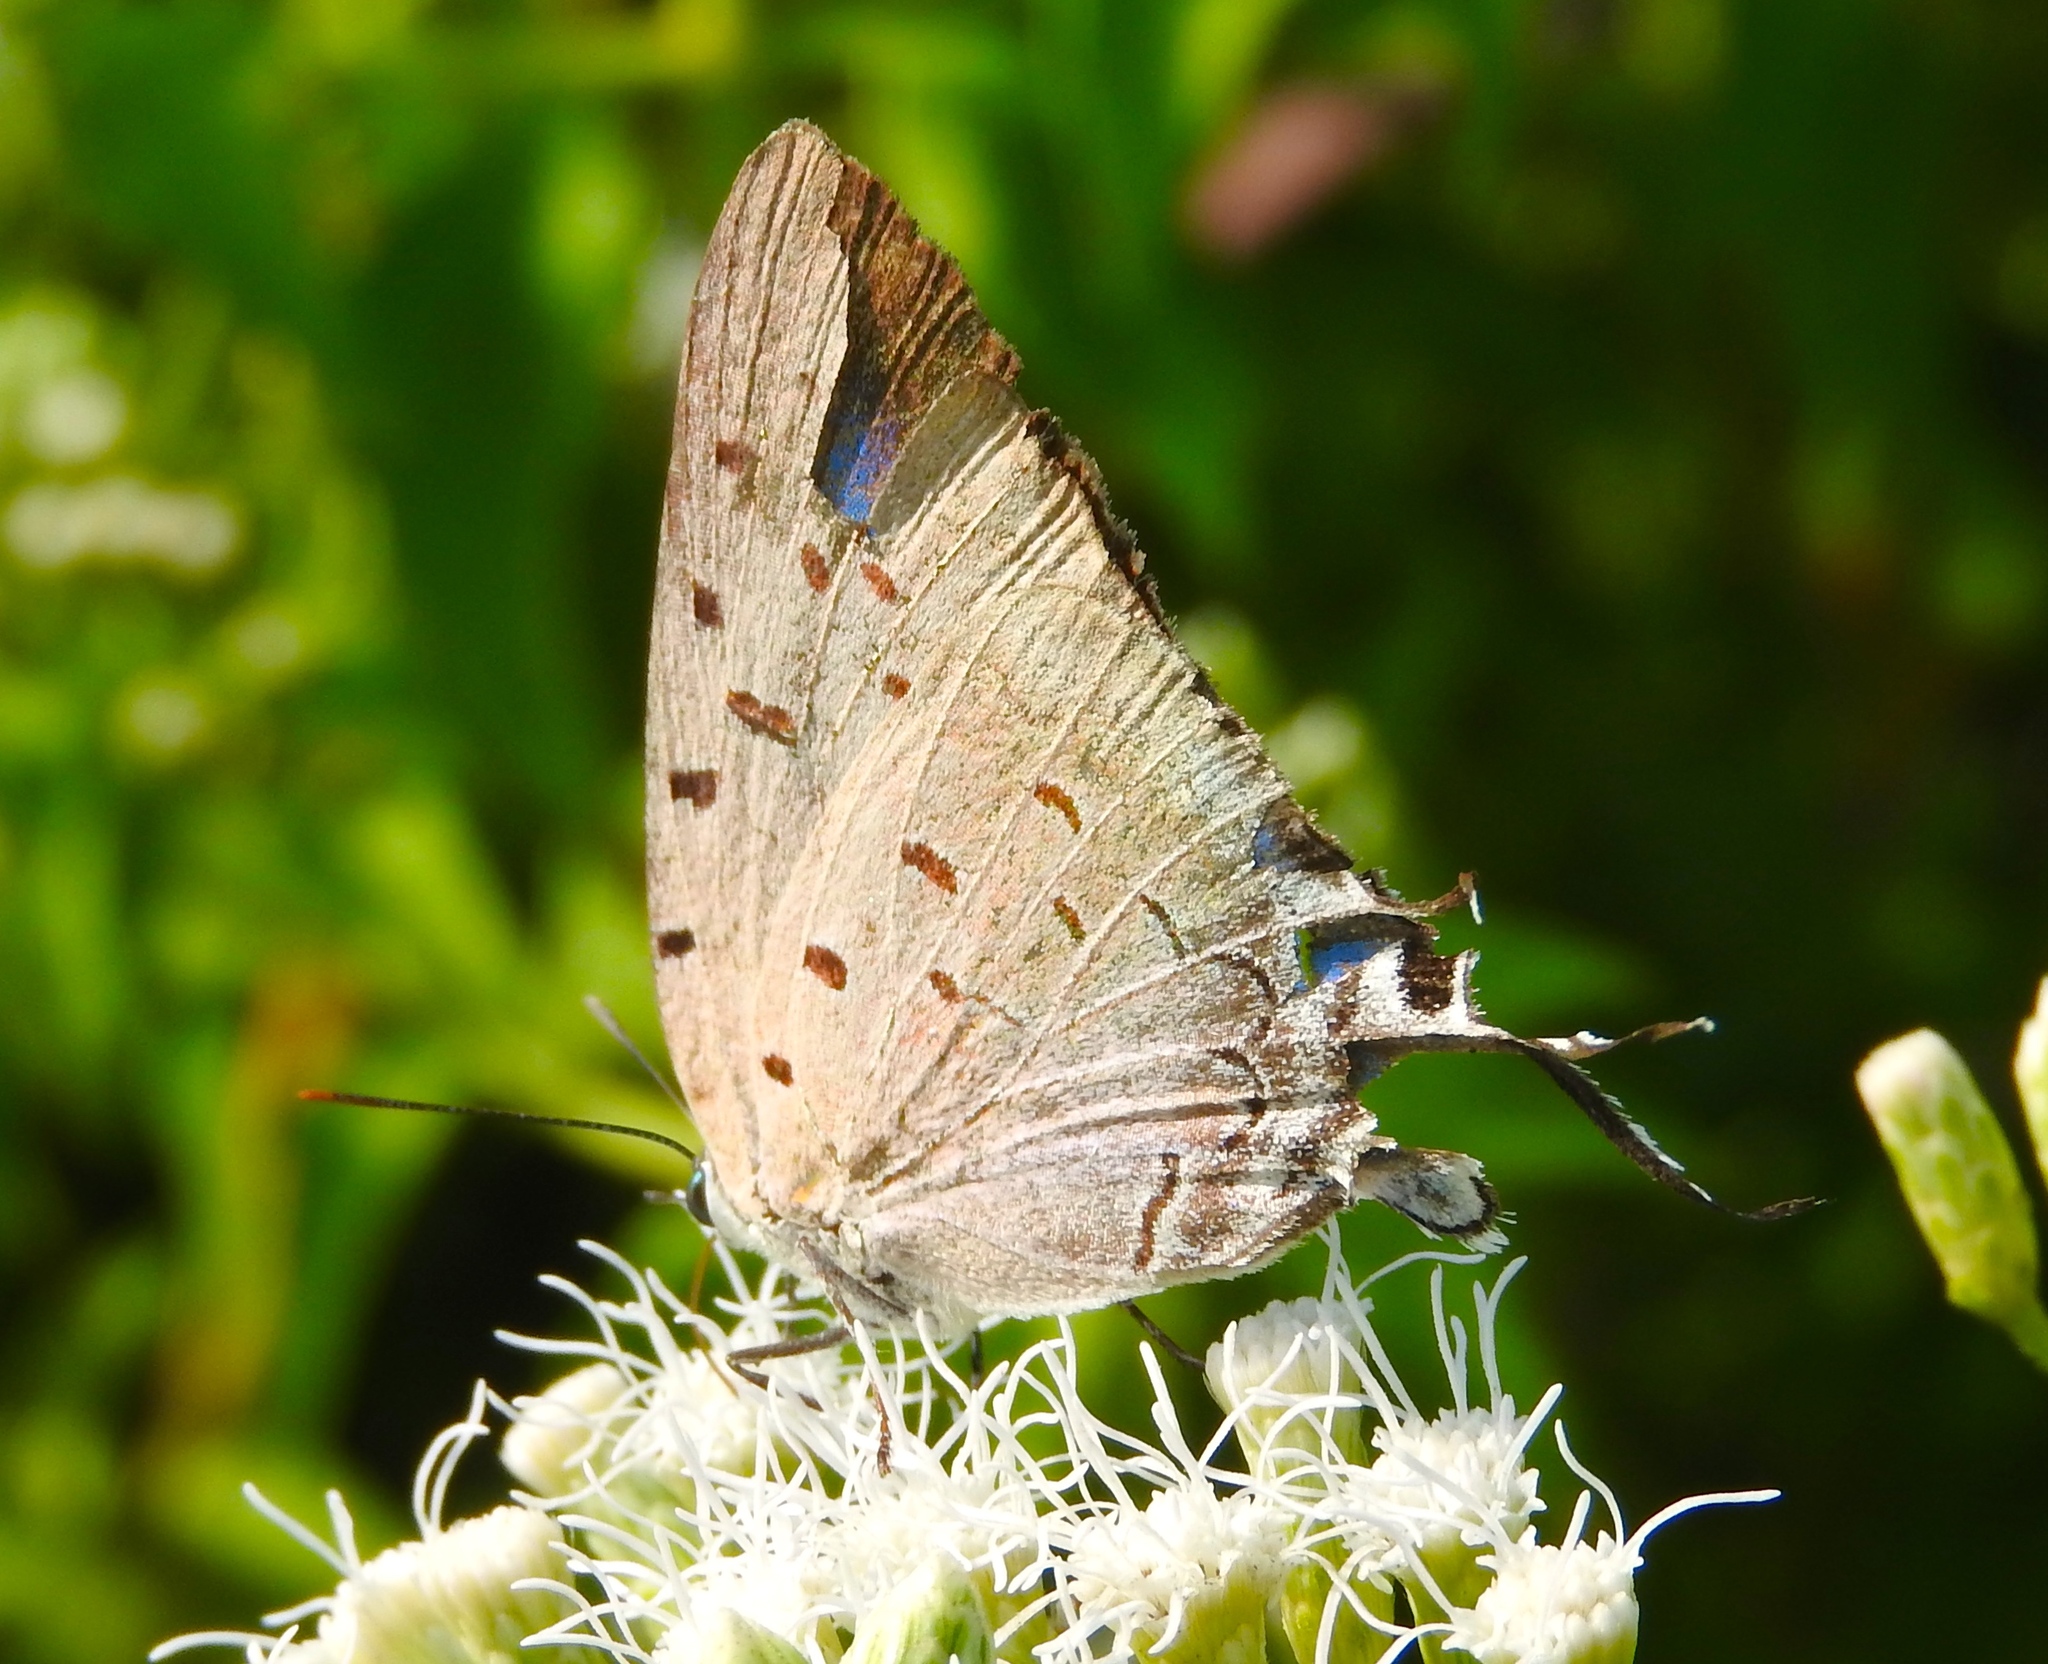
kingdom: Animalia
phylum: Arthropoda
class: Insecta
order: Lepidoptera
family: Lycaenidae
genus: Pseudolycaena
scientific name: Pseudolycaena damo
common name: Sky-blue hairstreak
